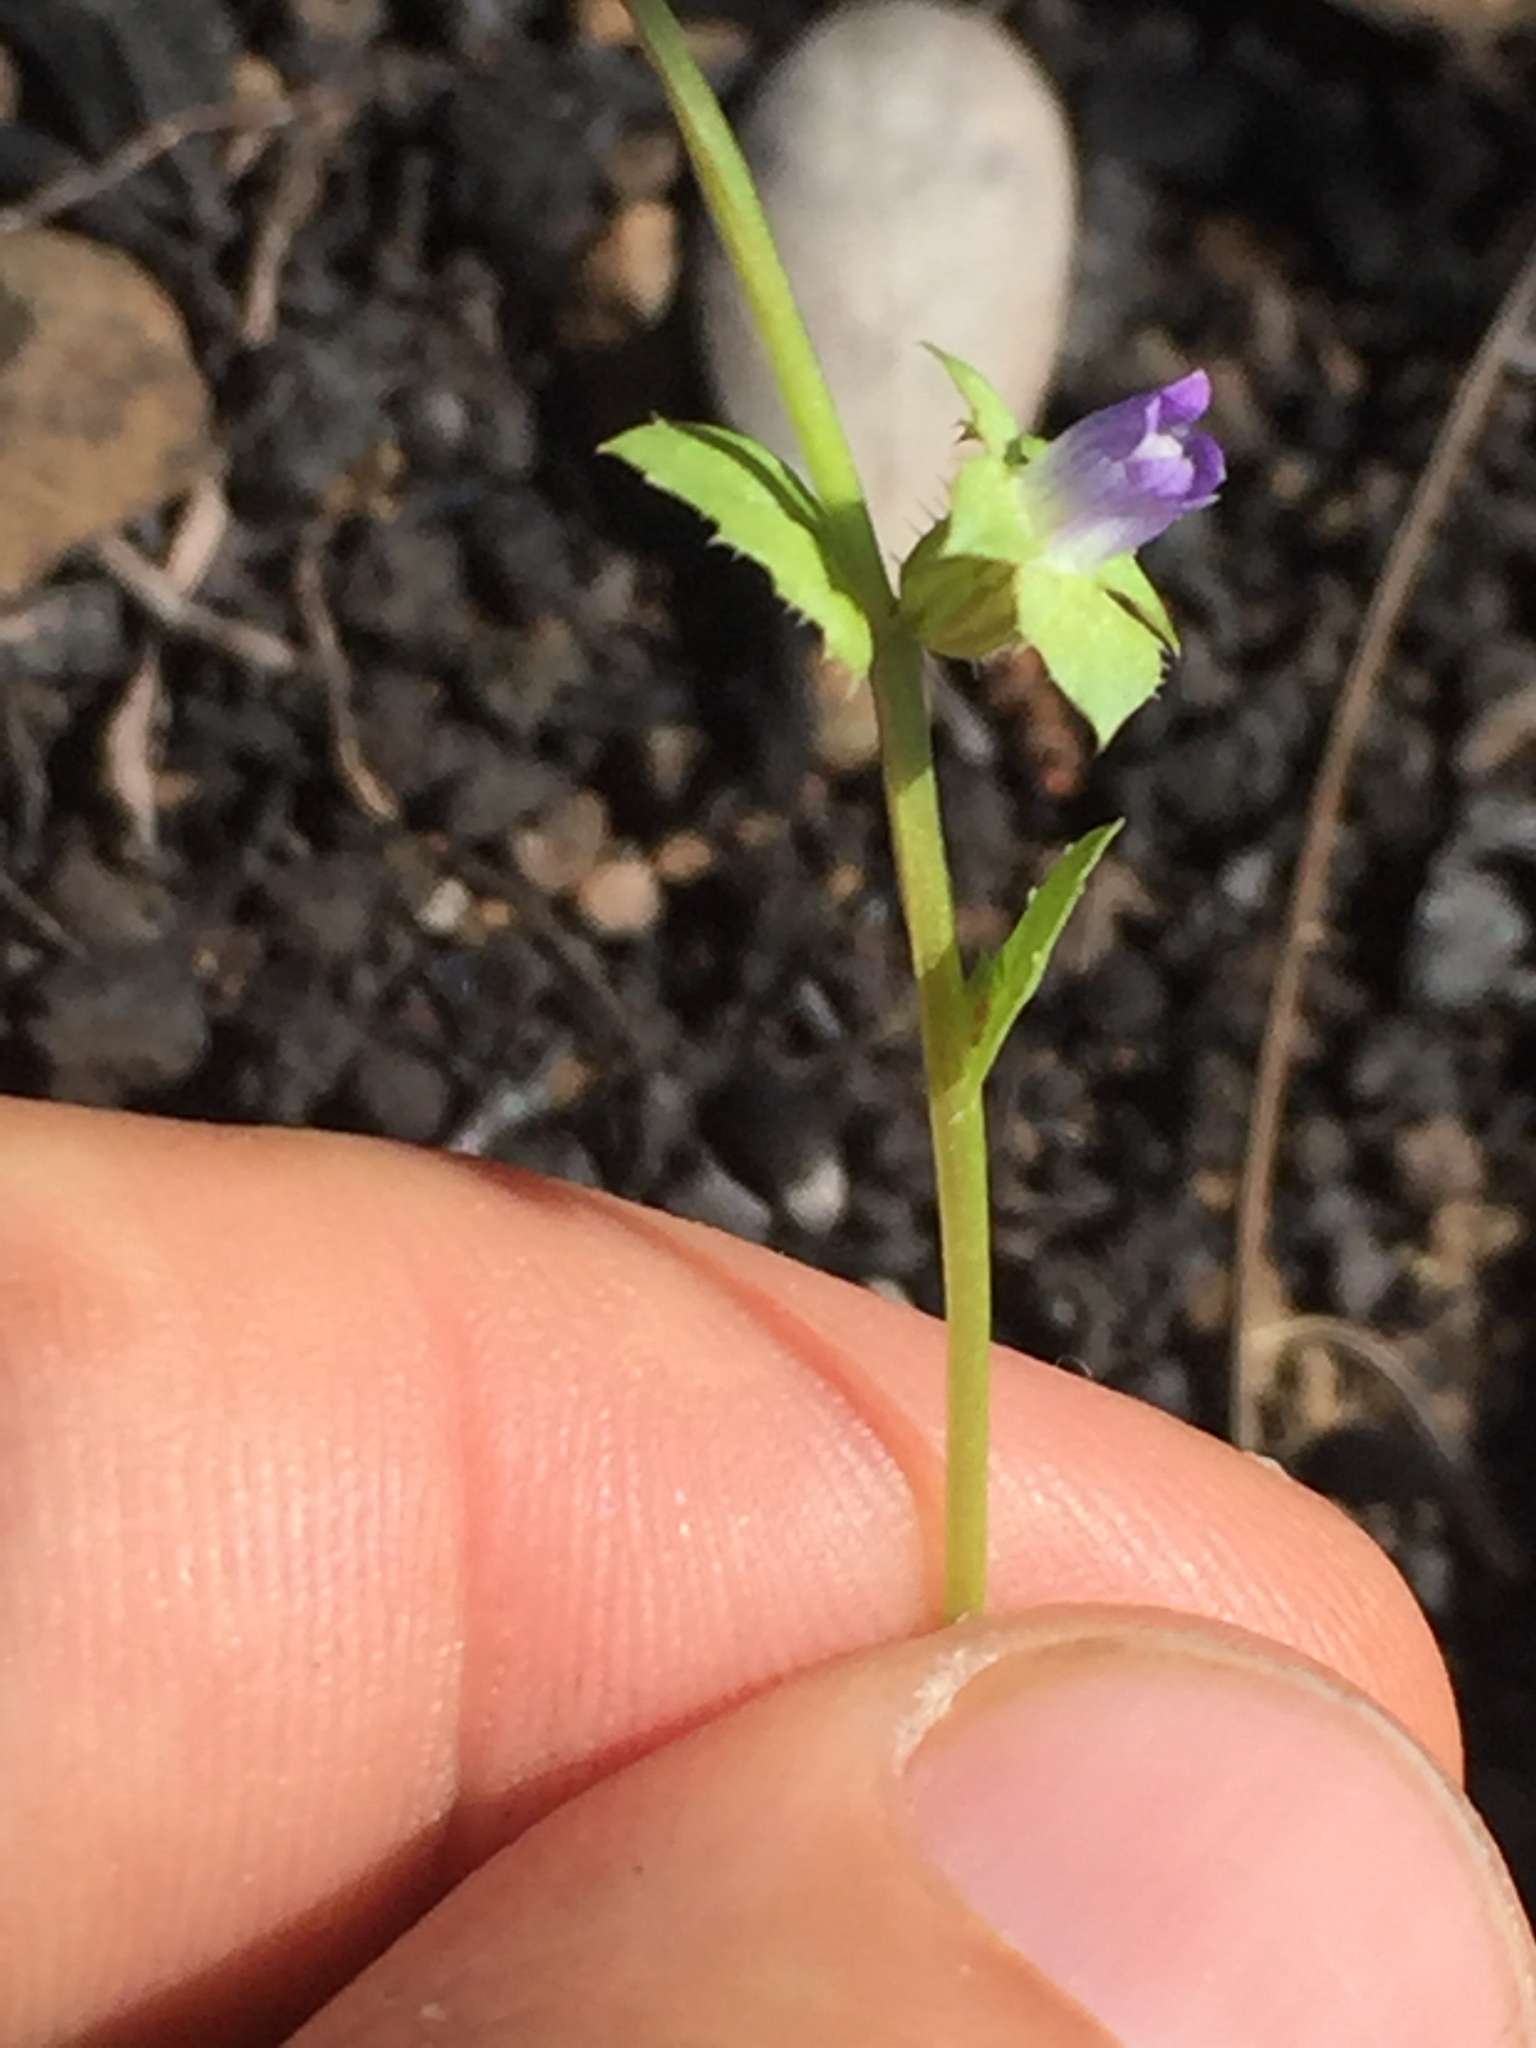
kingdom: Plantae
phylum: Tracheophyta
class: Magnoliopsida
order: Asterales
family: Campanulaceae
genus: Heterocodon
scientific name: Heterocodon rariflorum
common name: Rareflower heterocodon
